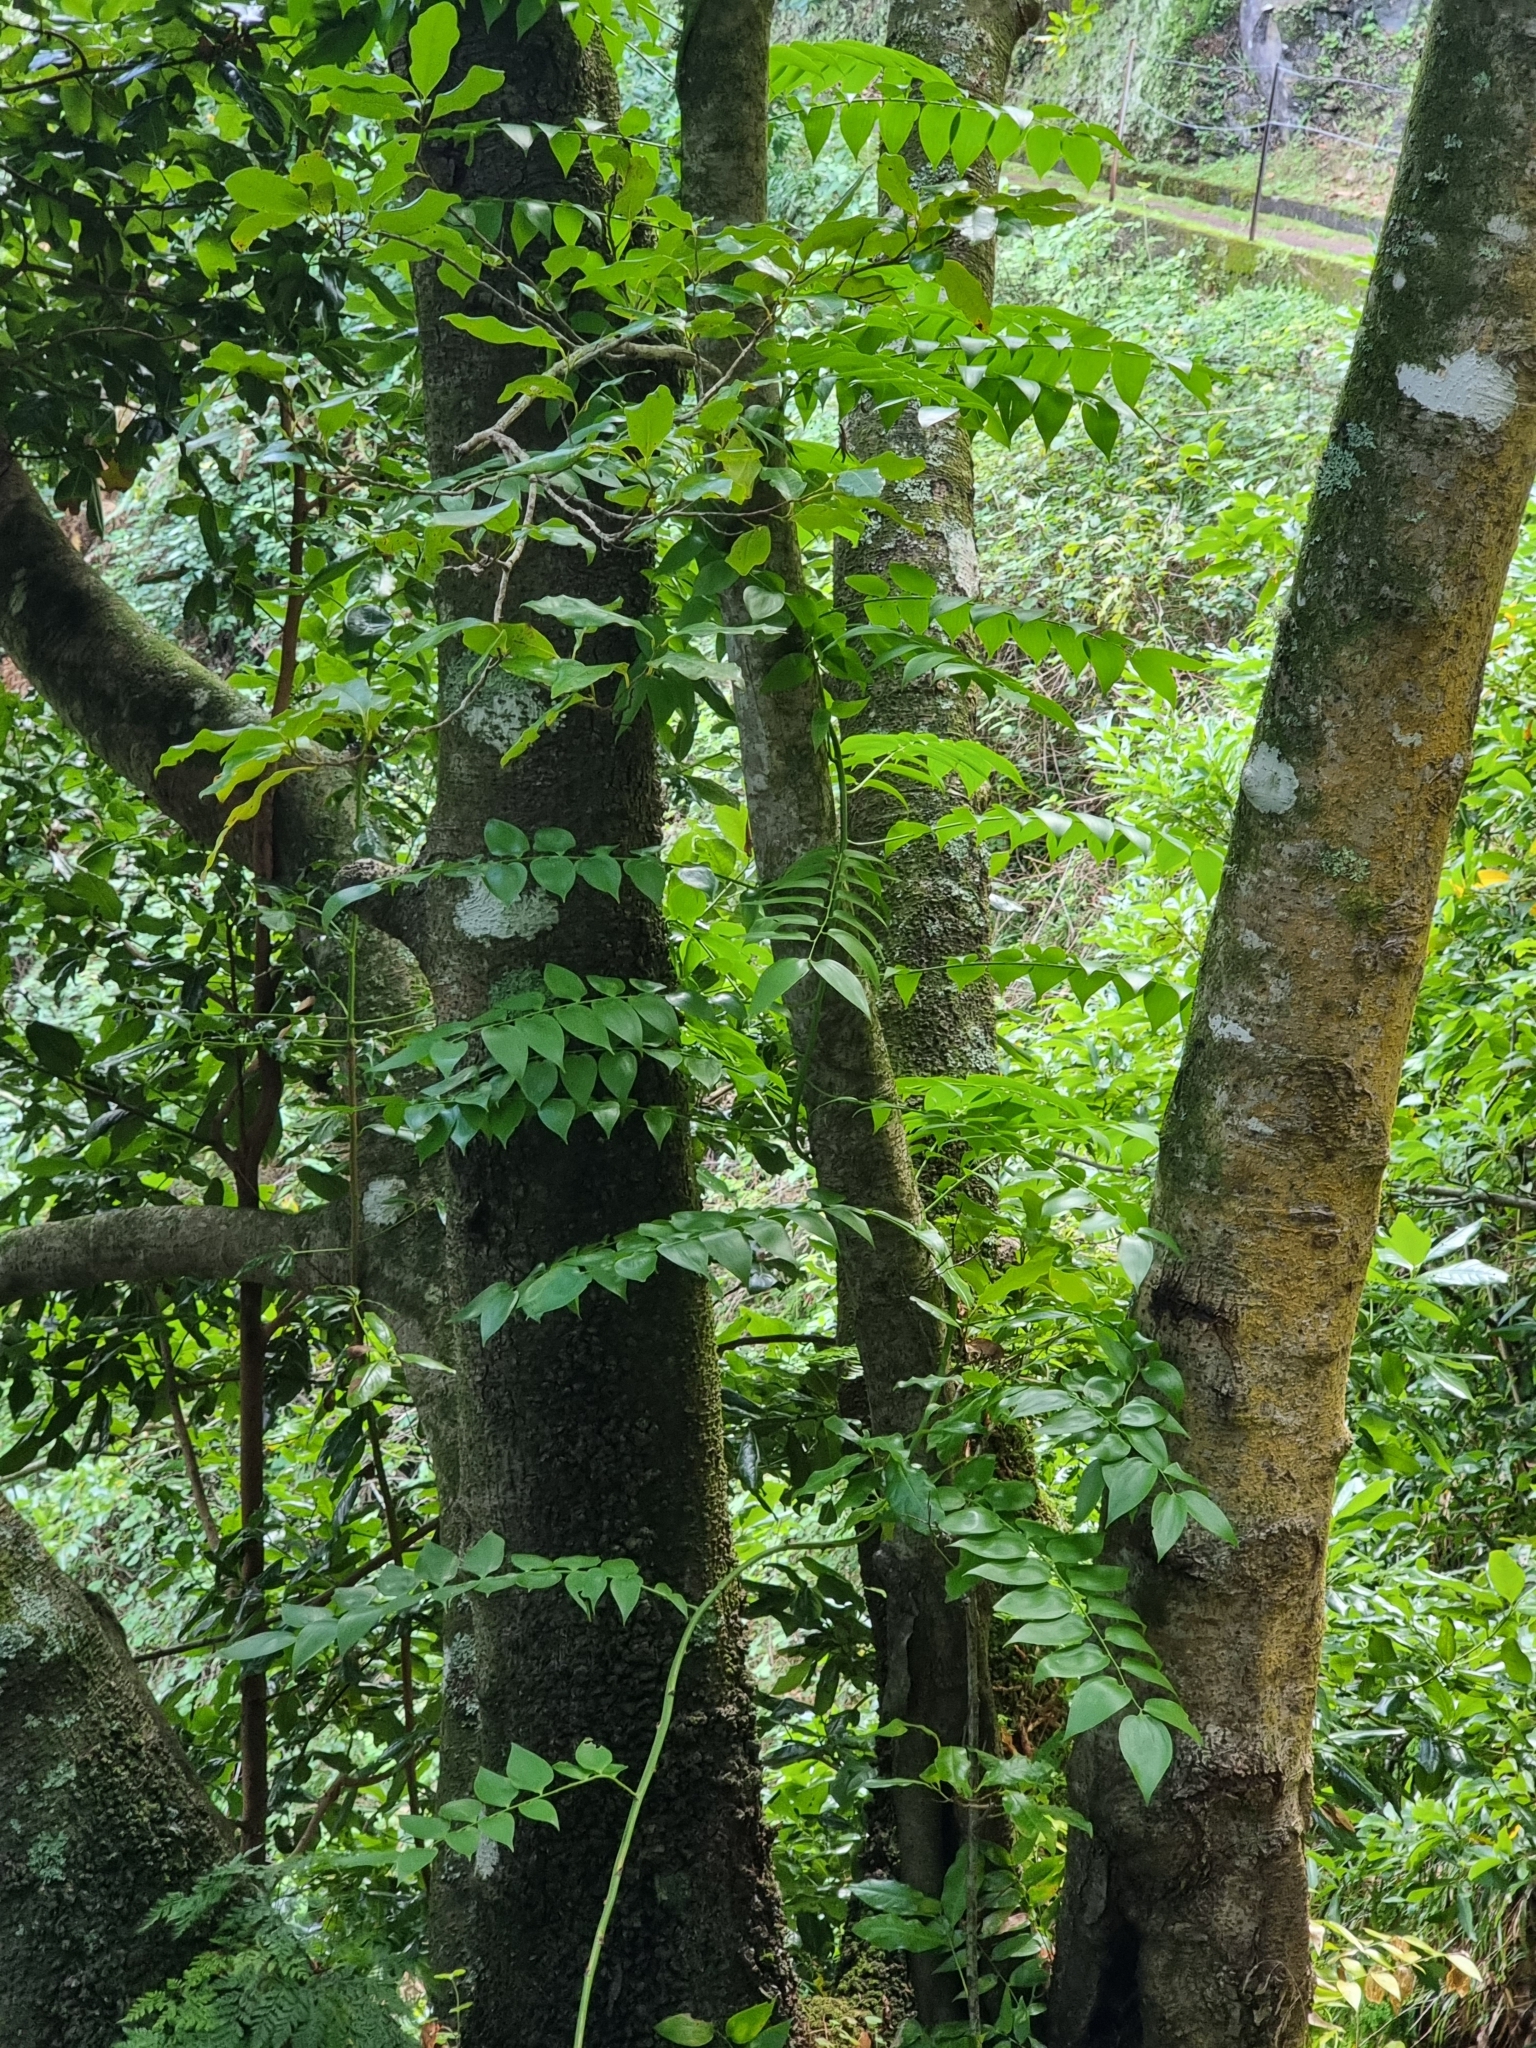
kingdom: Plantae
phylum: Tracheophyta
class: Liliopsida
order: Asparagales
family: Asparagaceae
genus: Semele
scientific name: Semele androgyna
